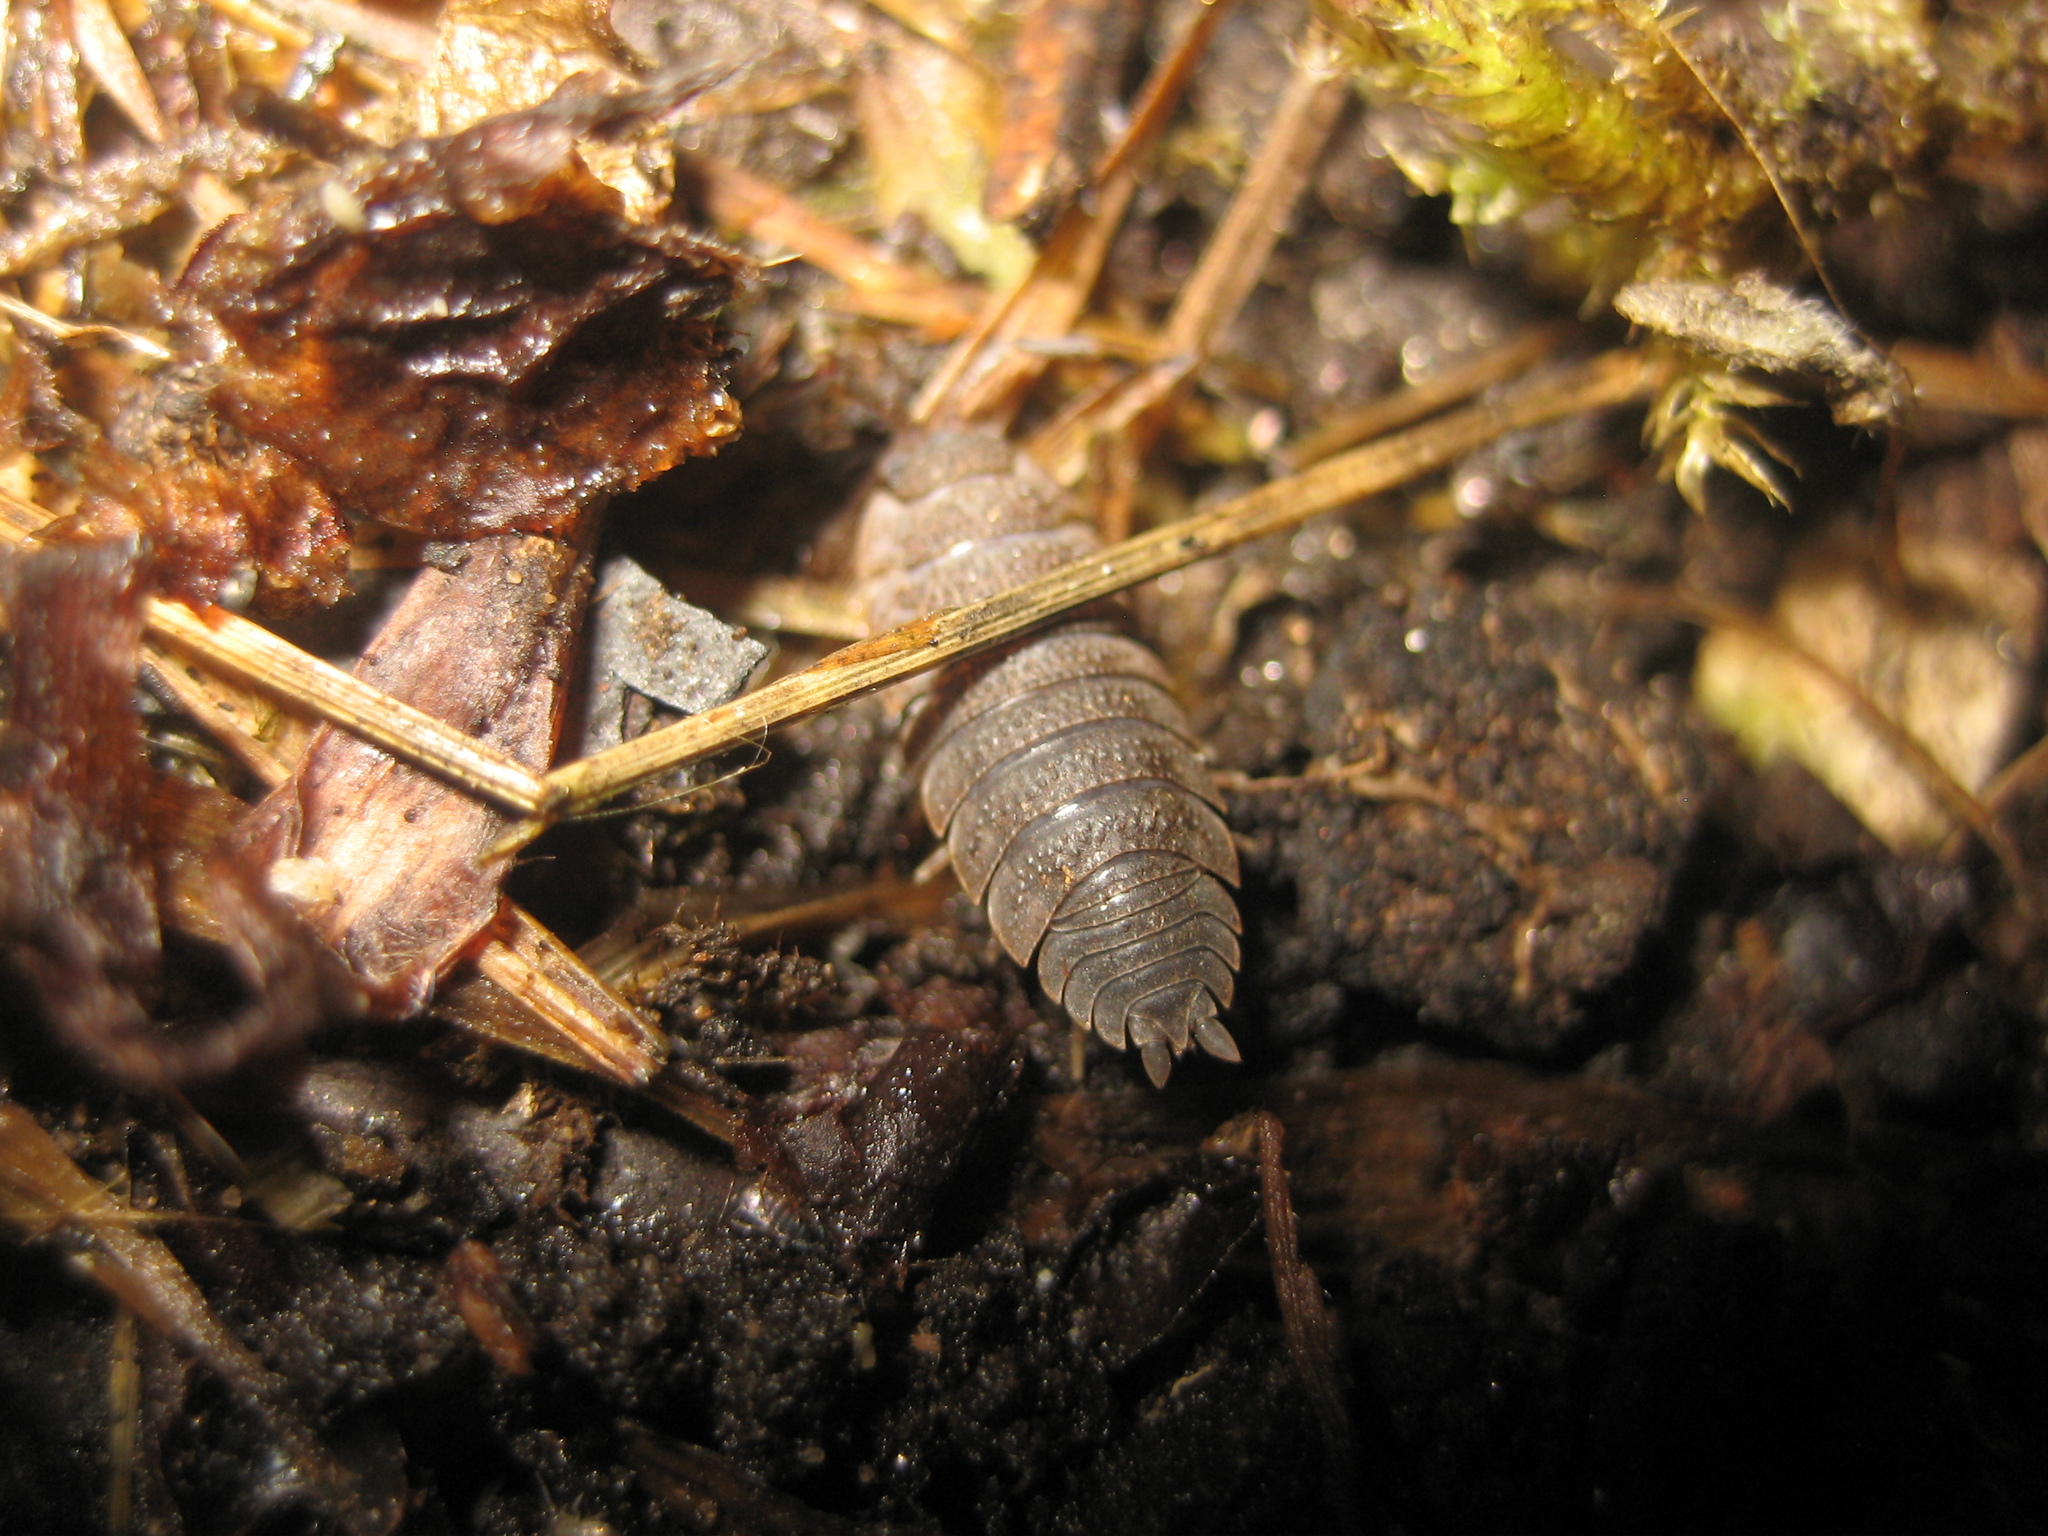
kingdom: Animalia
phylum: Arthropoda
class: Malacostraca
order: Isopoda
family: Porcellionidae
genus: Porcellio
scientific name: Porcellio scaber
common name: Common rough woodlouse
